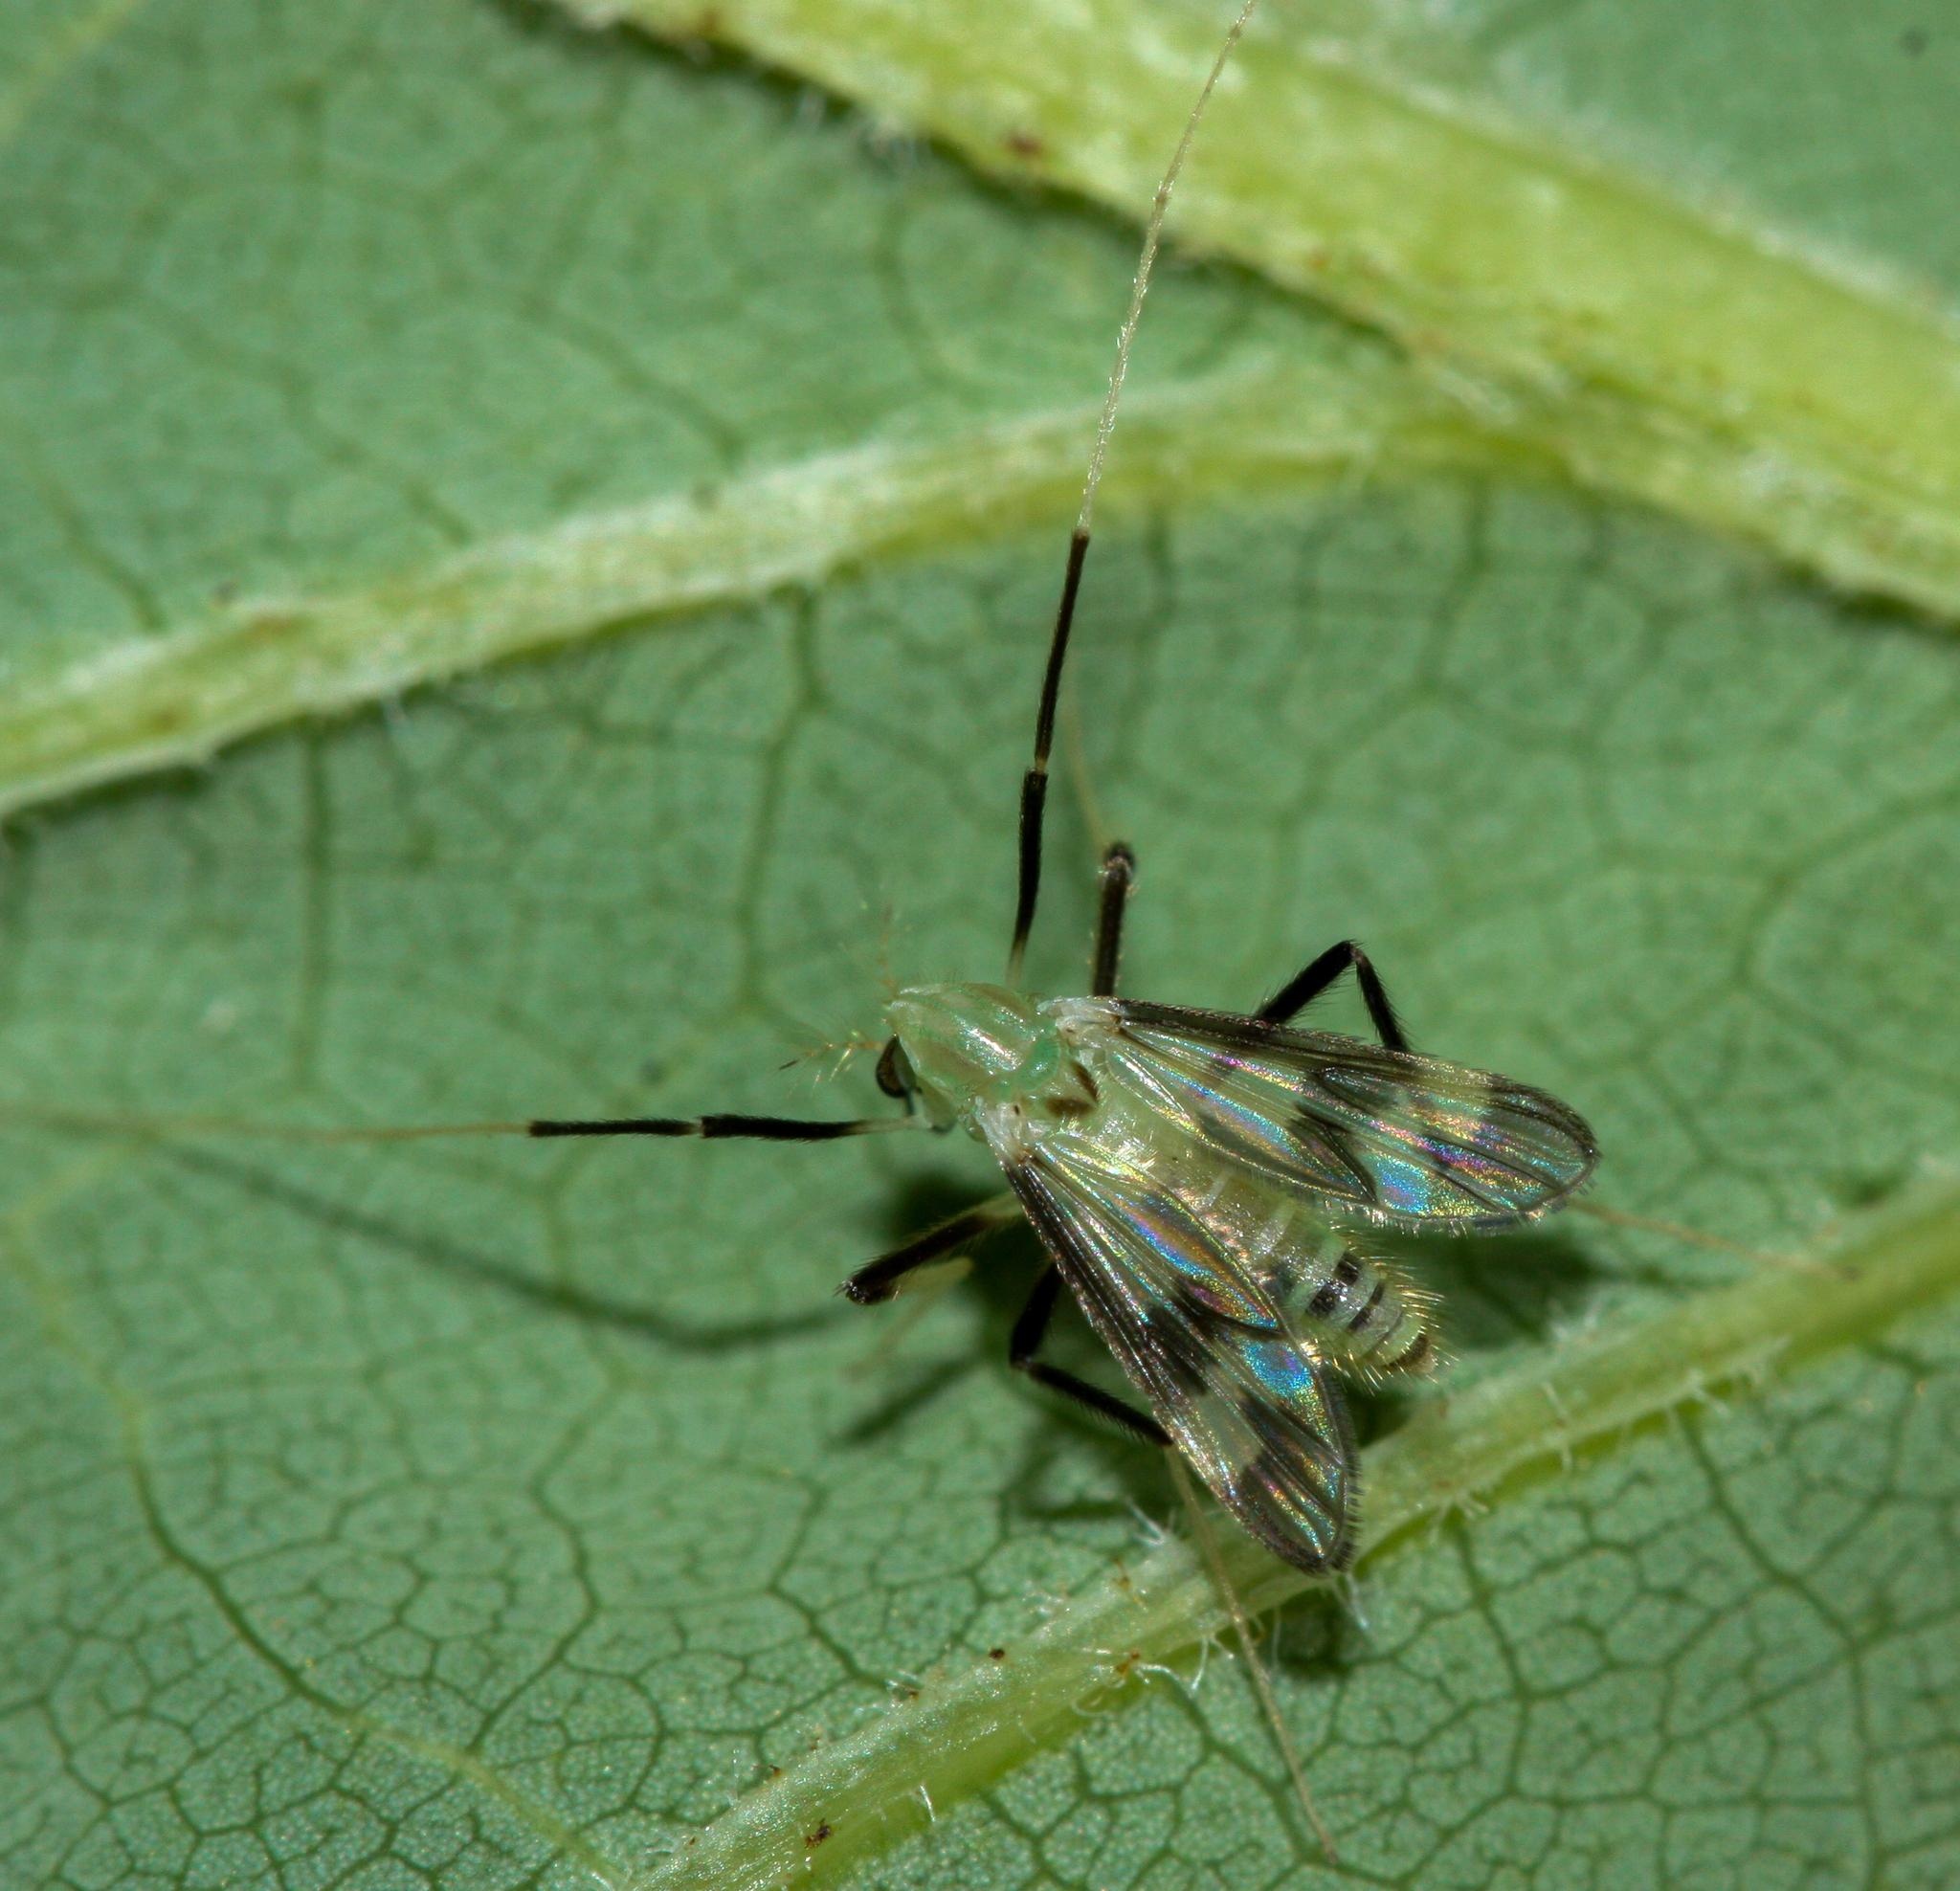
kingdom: Animalia
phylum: Arthropoda
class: Insecta
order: Diptera
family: Chironomidae
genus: Stenochironomus
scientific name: Stenochironomus hilaris
